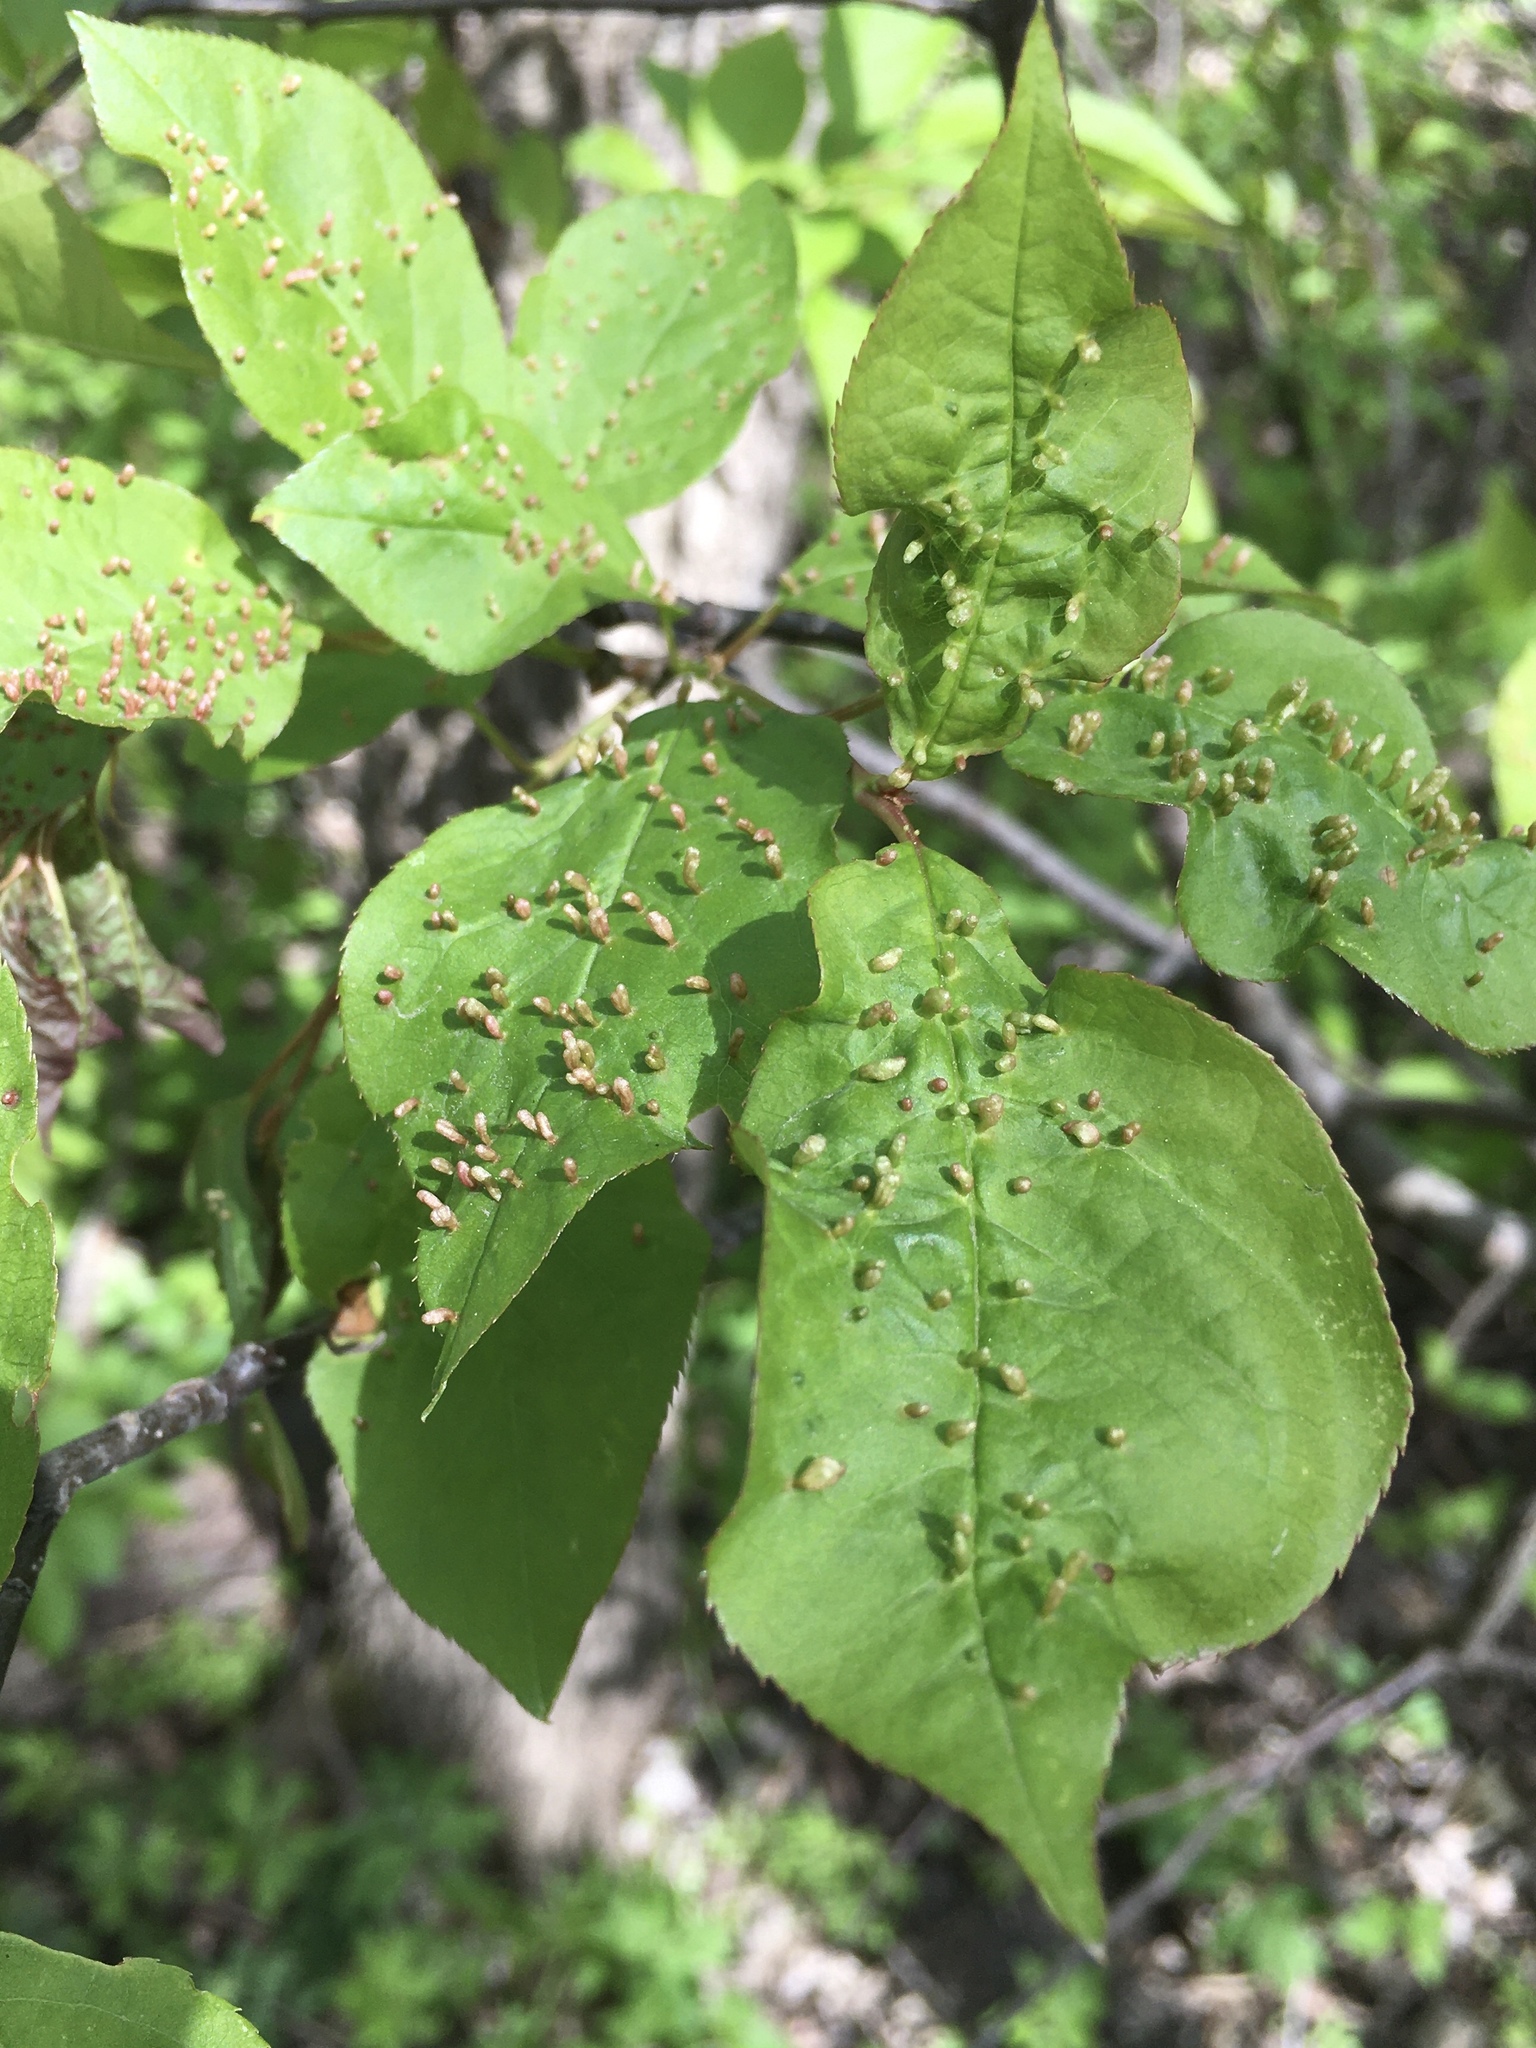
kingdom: Animalia
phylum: Arthropoda
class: Arachnida
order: Trombidiformes
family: Eriophyidae
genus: Eriophyes
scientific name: Eriophyes emarginatae
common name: Plum leaf gall mite
